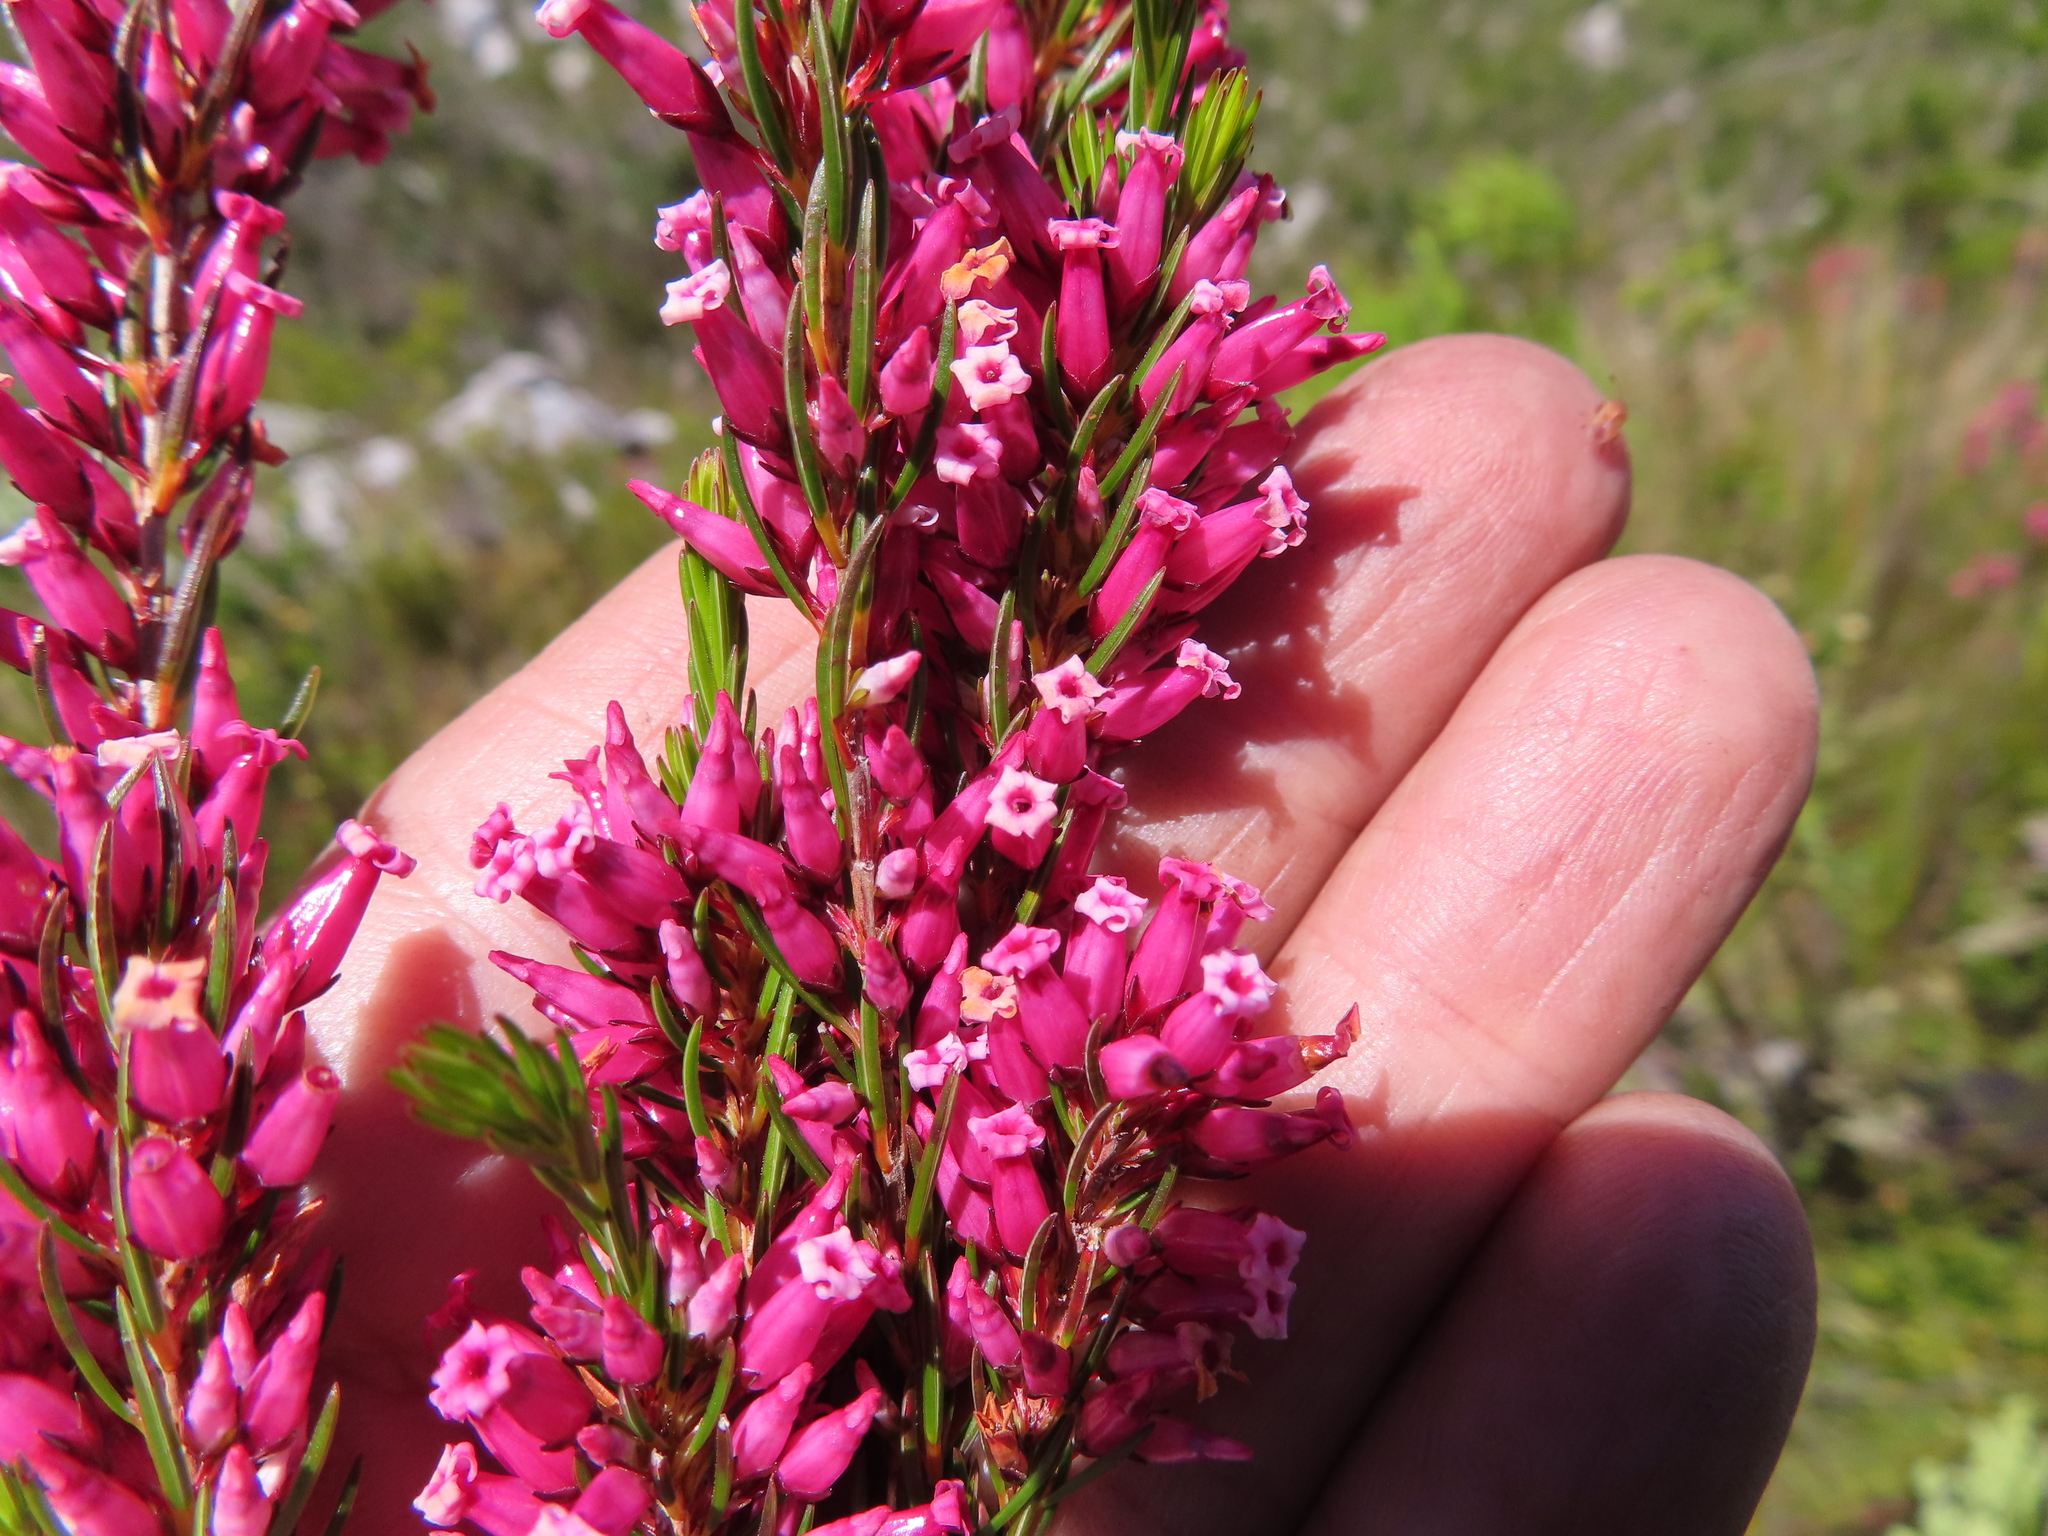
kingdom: Plantae
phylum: Tracheophyta
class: Magnoliopsida
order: Ericales
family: Ericaceae
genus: Erica
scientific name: Erica macilenta
